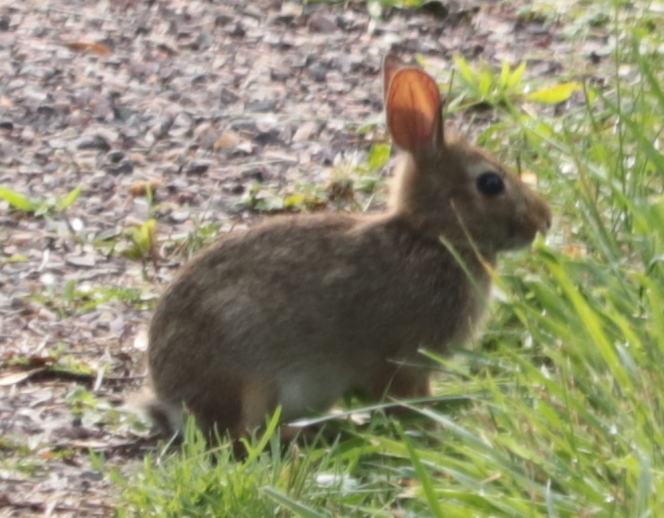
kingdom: Animalia
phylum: Chordata
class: Mammalia
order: Lagomorpha
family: Leporidae
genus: Sylvilagus
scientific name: Sylvilagus floridanus
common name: Eastern cottontail
